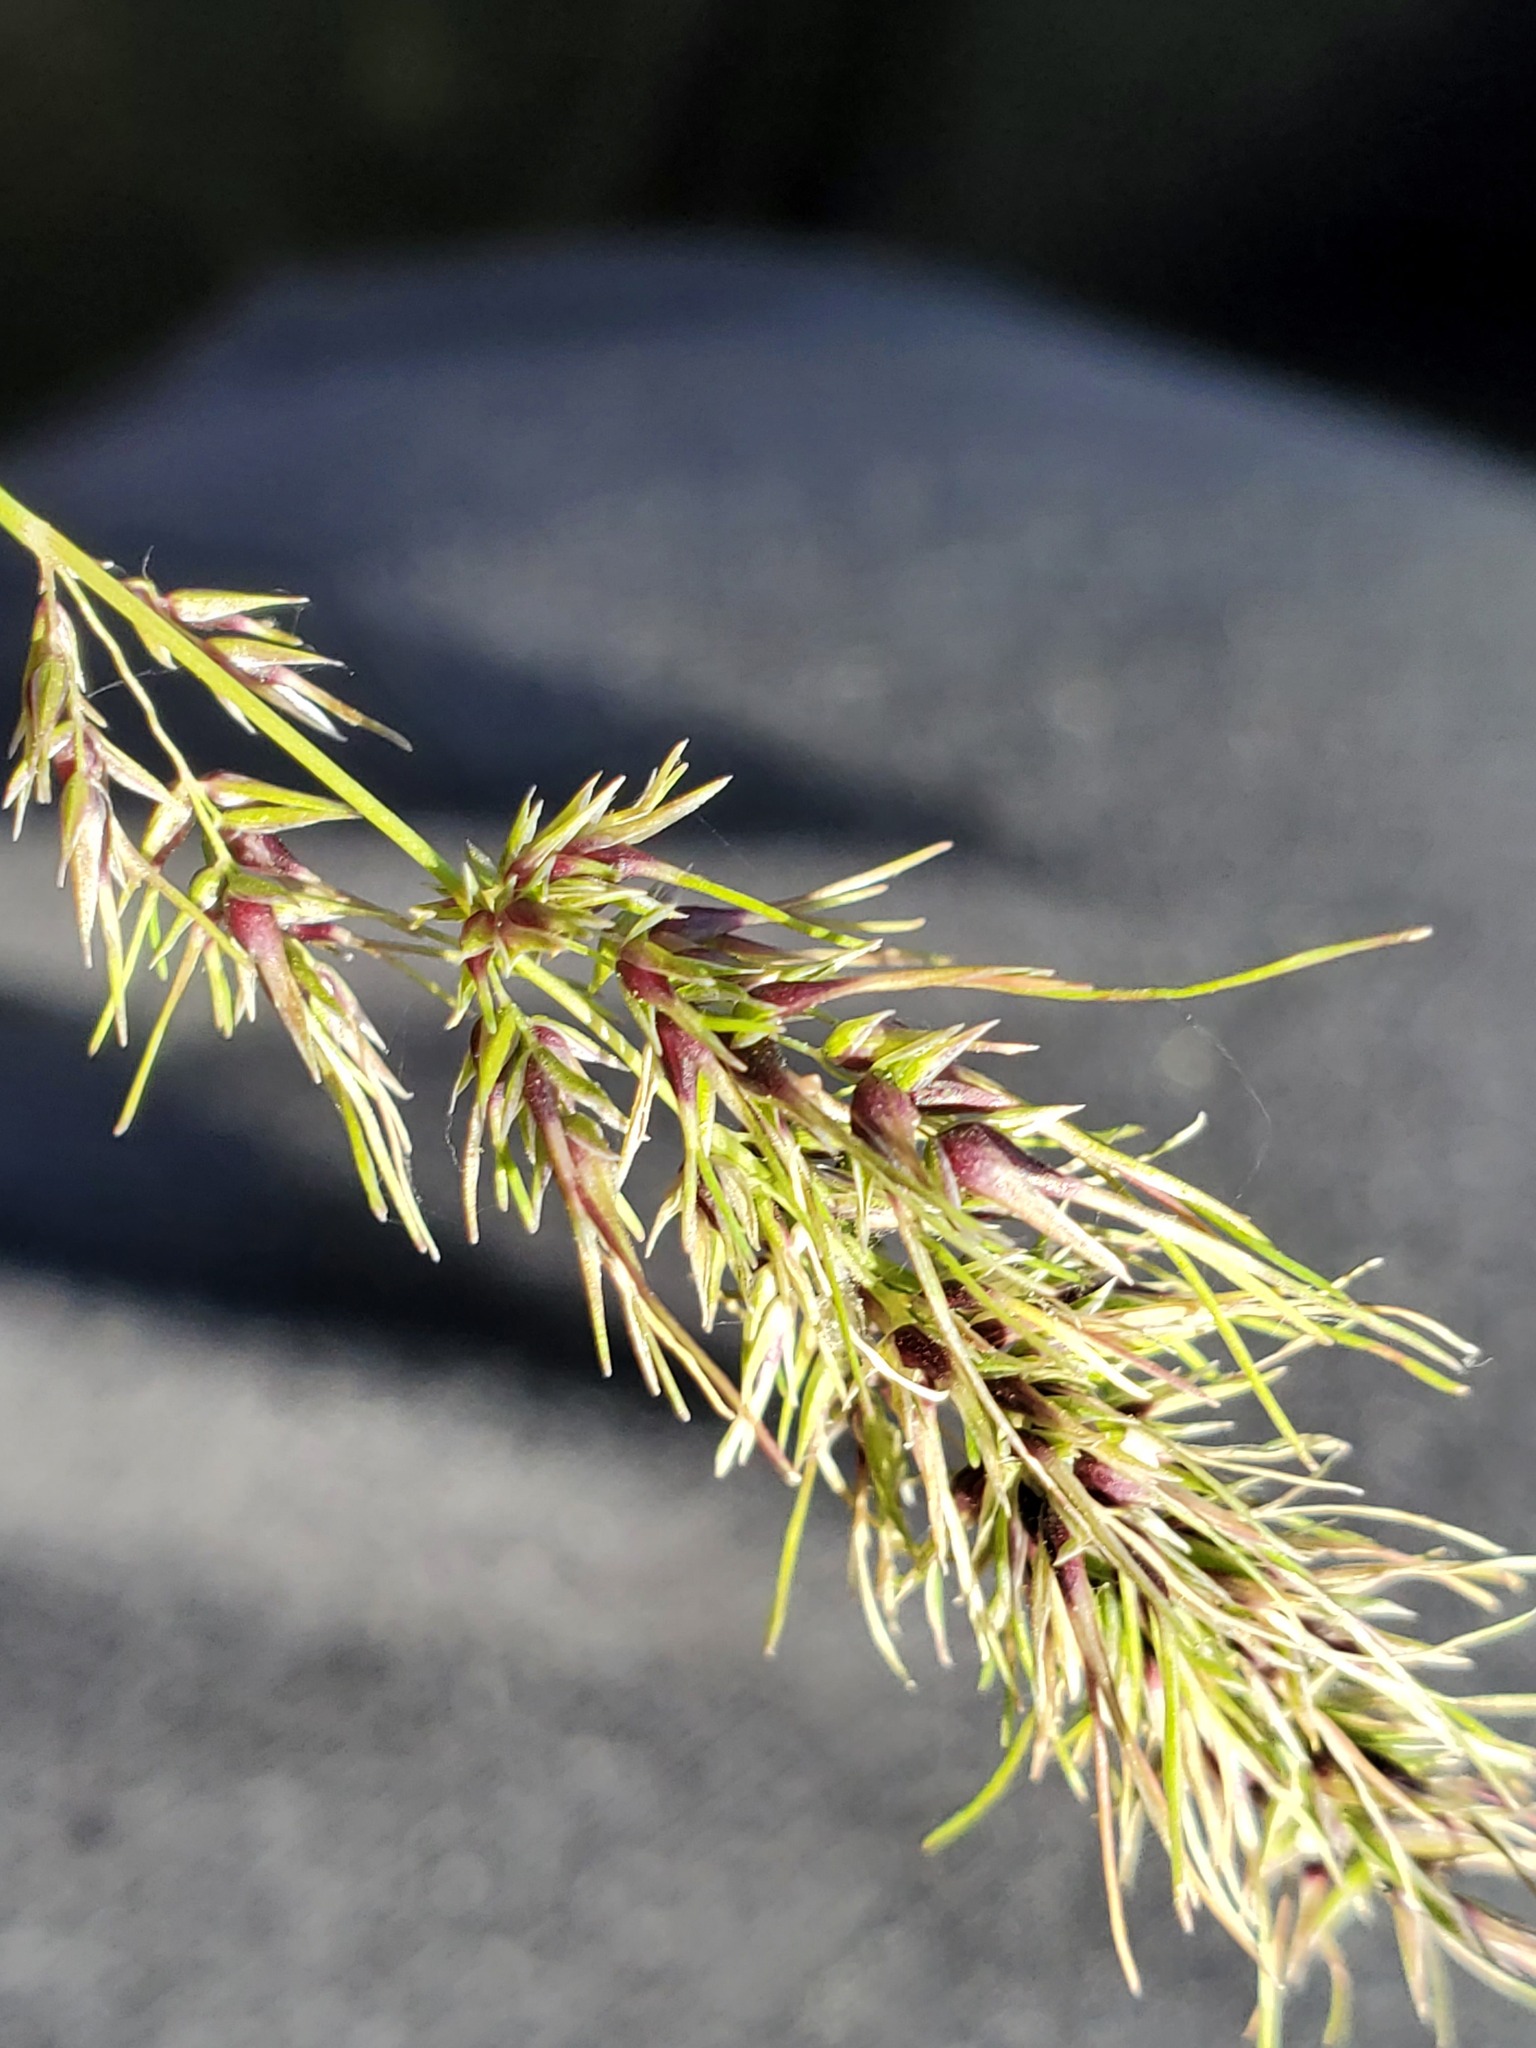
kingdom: Plantae
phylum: Tracheophyta
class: Liliopsida
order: Poales
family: Poaceae
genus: Poa
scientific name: Poa bulbosa
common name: Bulbous bluegrass
